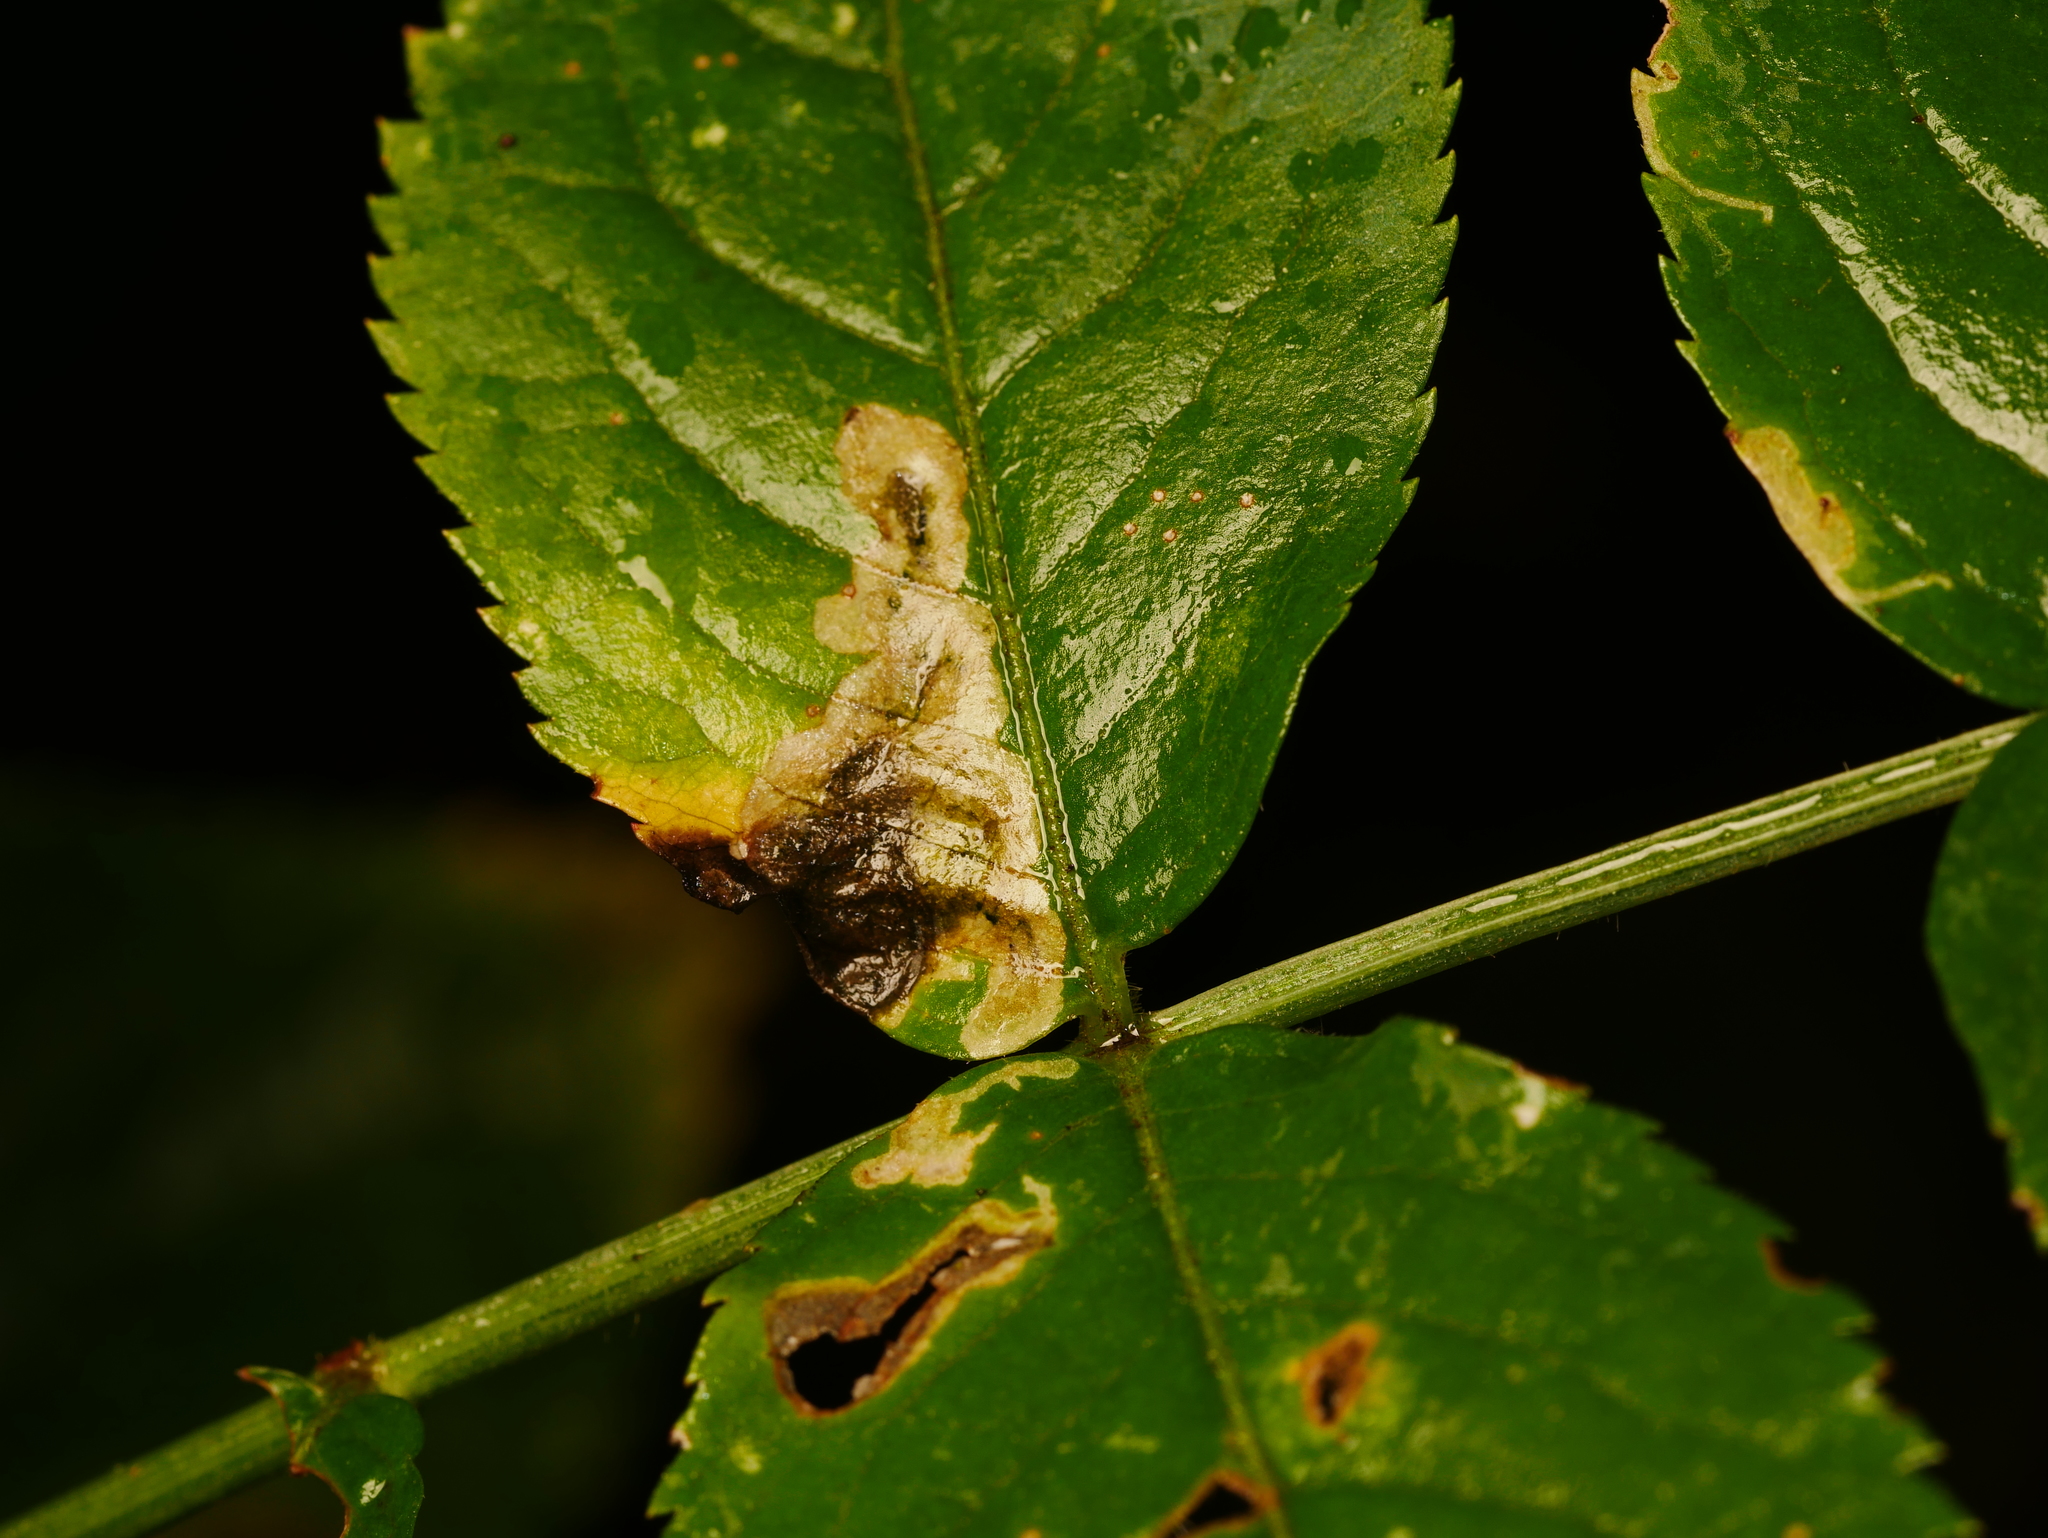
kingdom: Animalia
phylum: Arthropoda
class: Insecta
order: Diptera
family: Agromyzidae
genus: Liriomyza
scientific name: Liriomyza amoena
